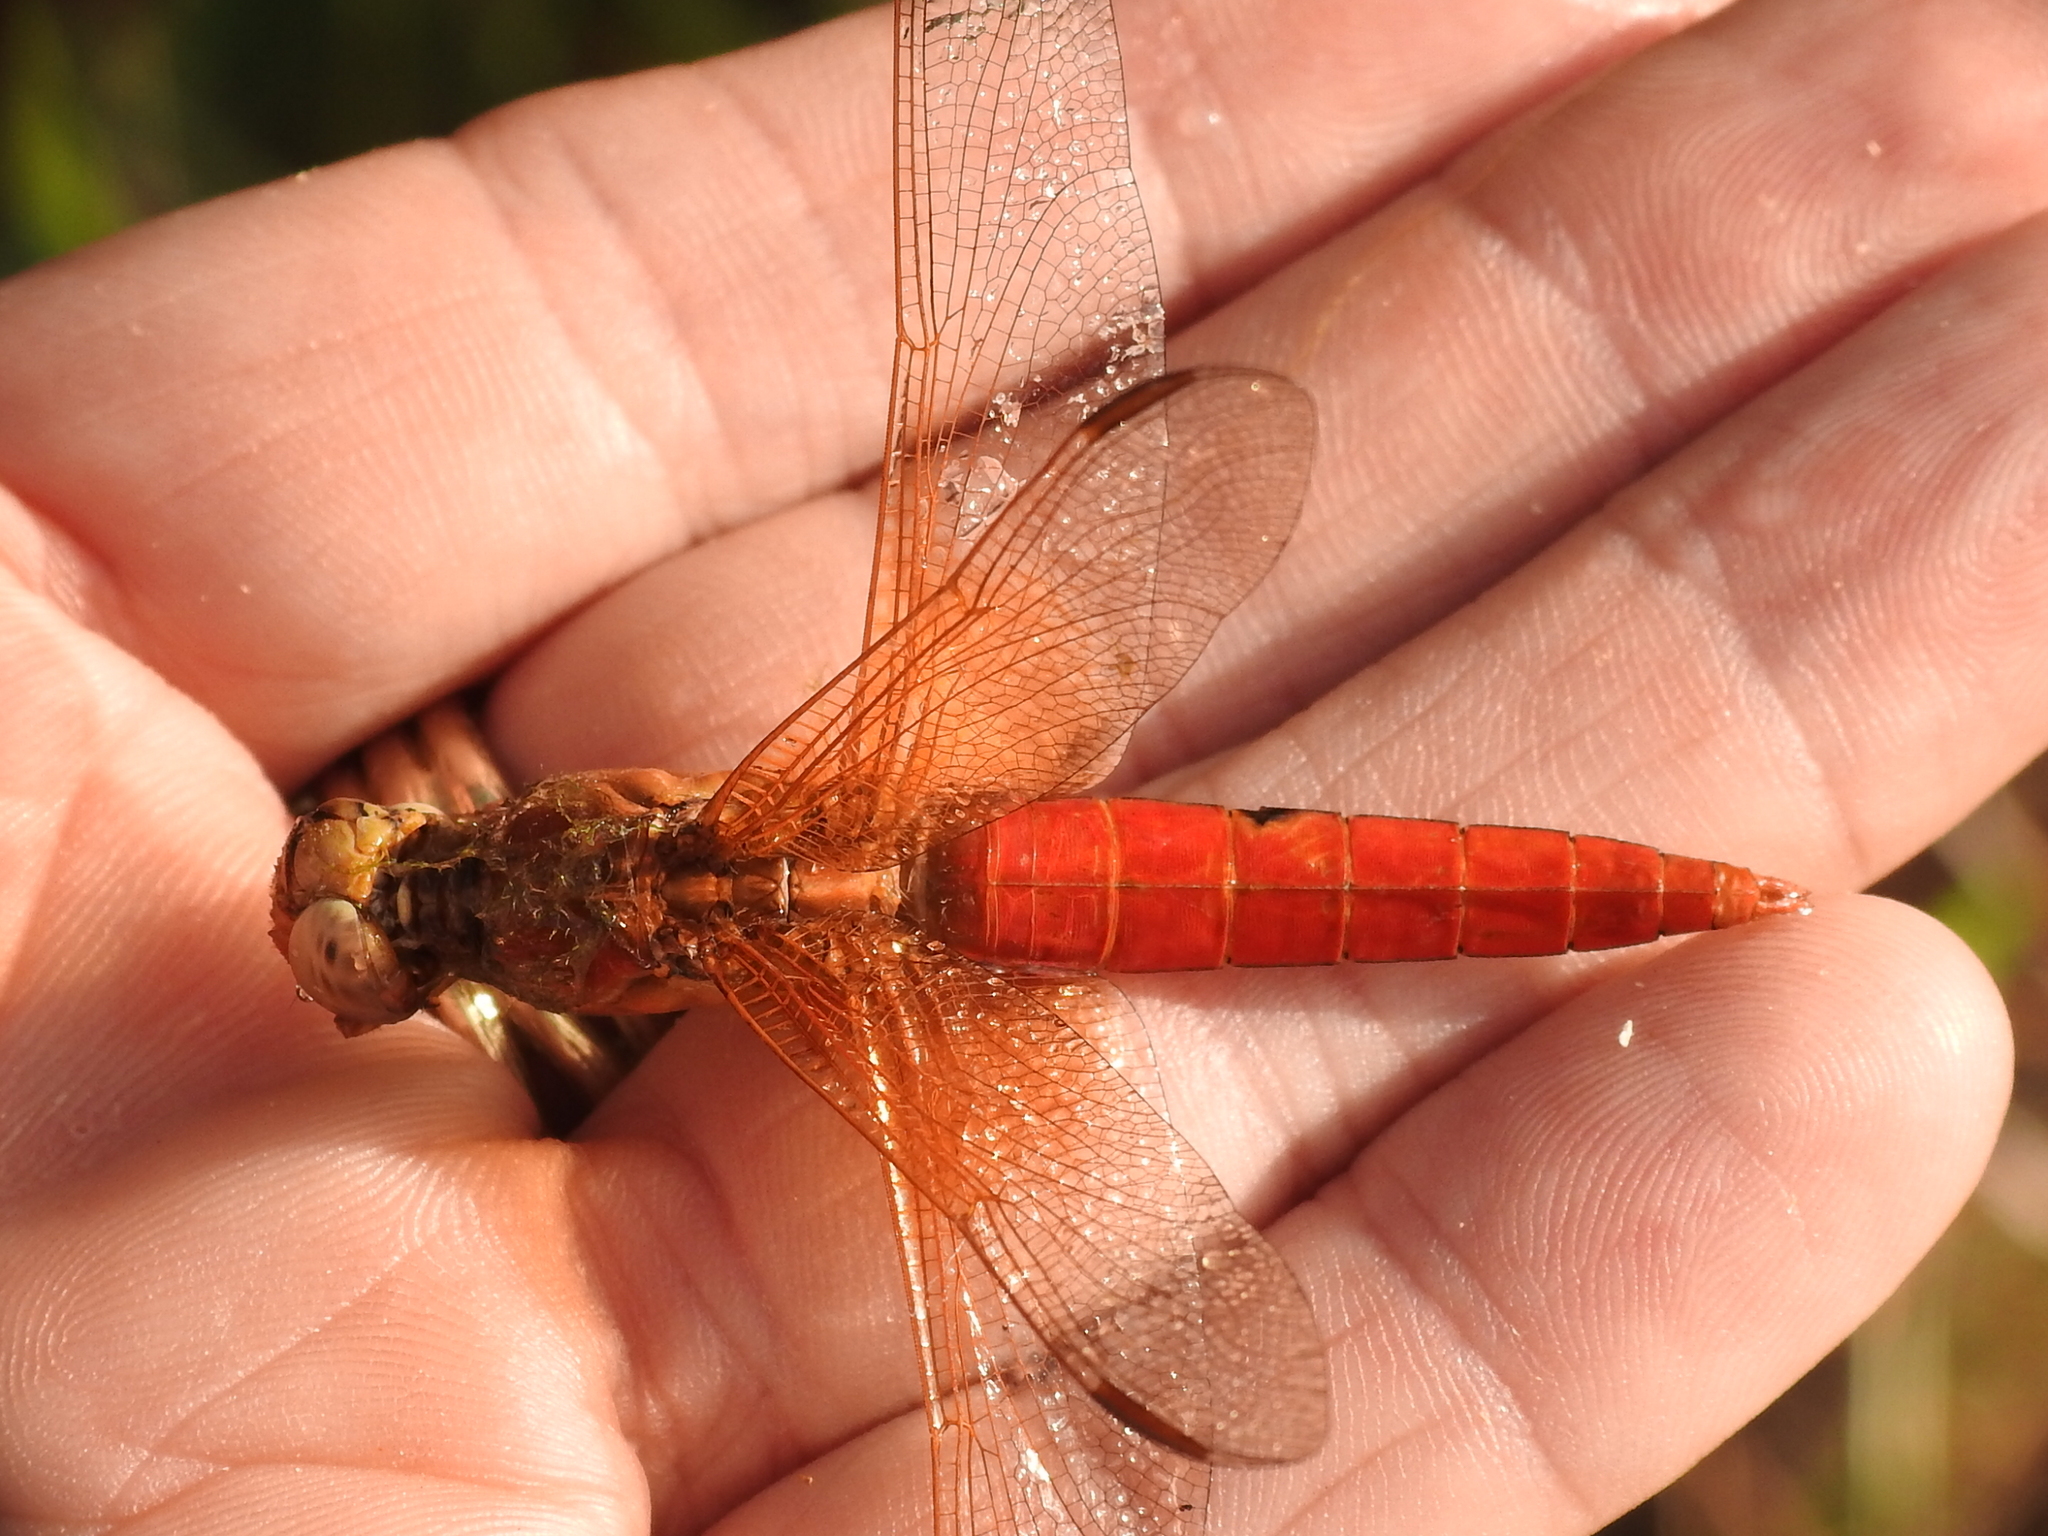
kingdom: Animalia
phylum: Arthropoda
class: Insecta
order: Odonata
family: Libellulidae
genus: Libellula
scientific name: Libellula croceipennis
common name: Neon skimmer
